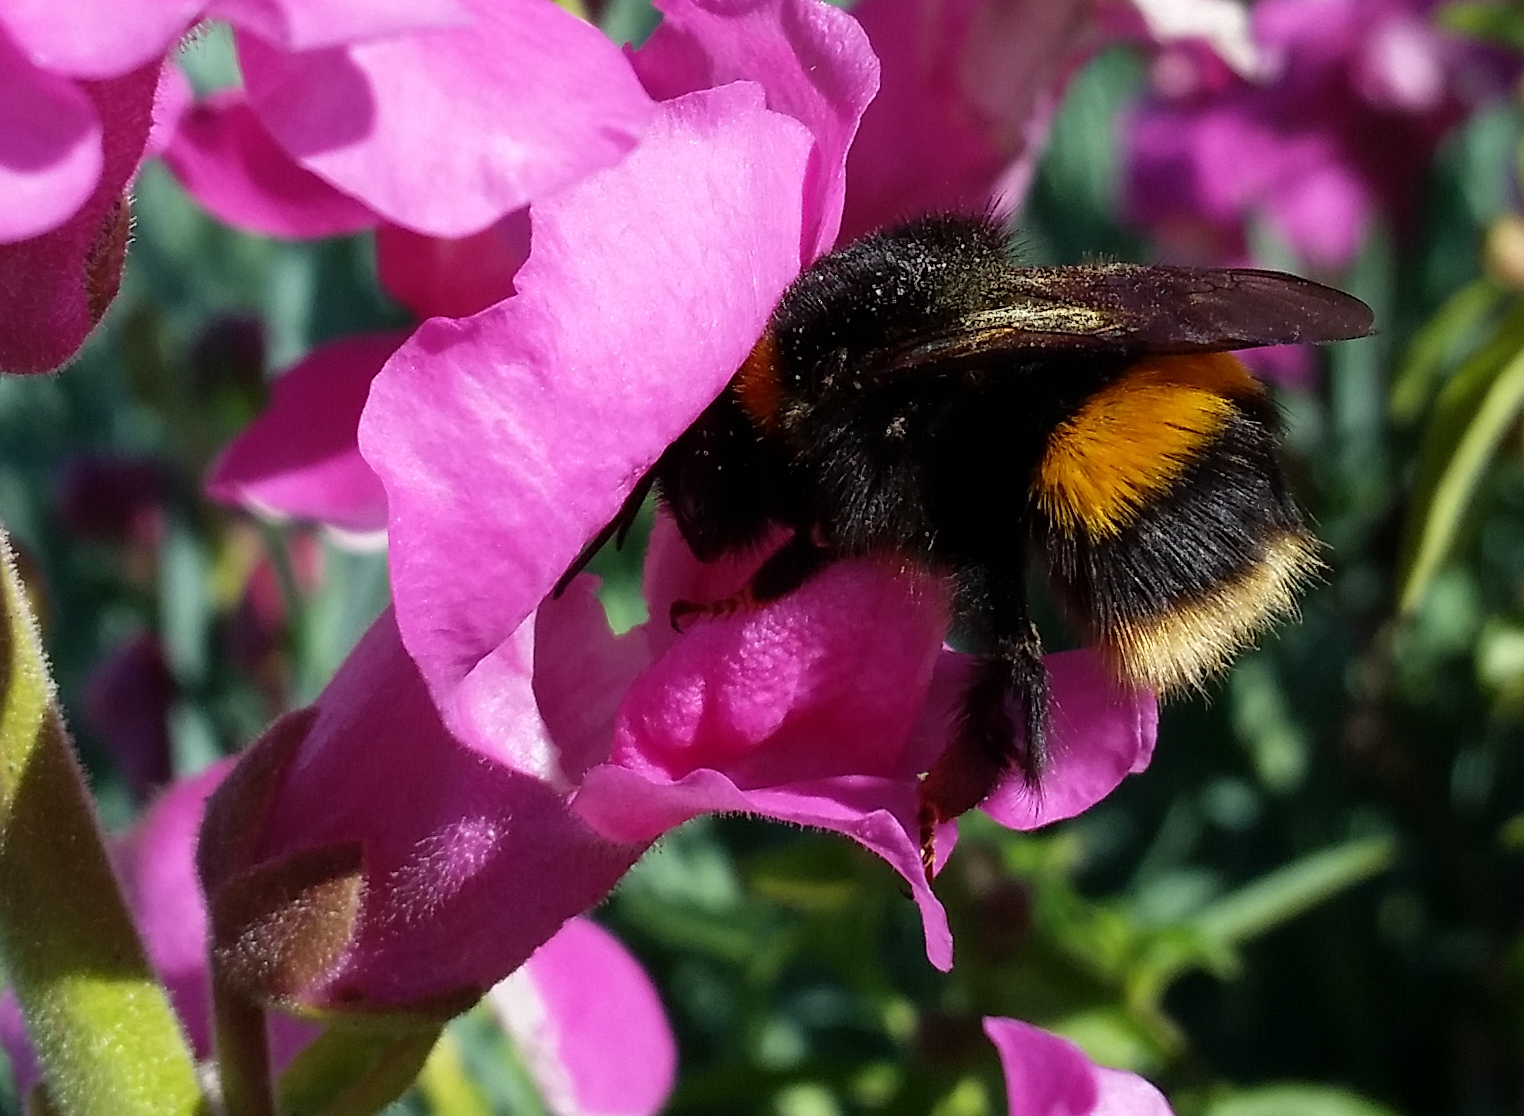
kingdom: Animalia
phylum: Arthropoda
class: Insecta
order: Hymenoptera
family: Apidae
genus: Bombus
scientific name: Bombus terrestris
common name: Buff-tailed bumblebee
